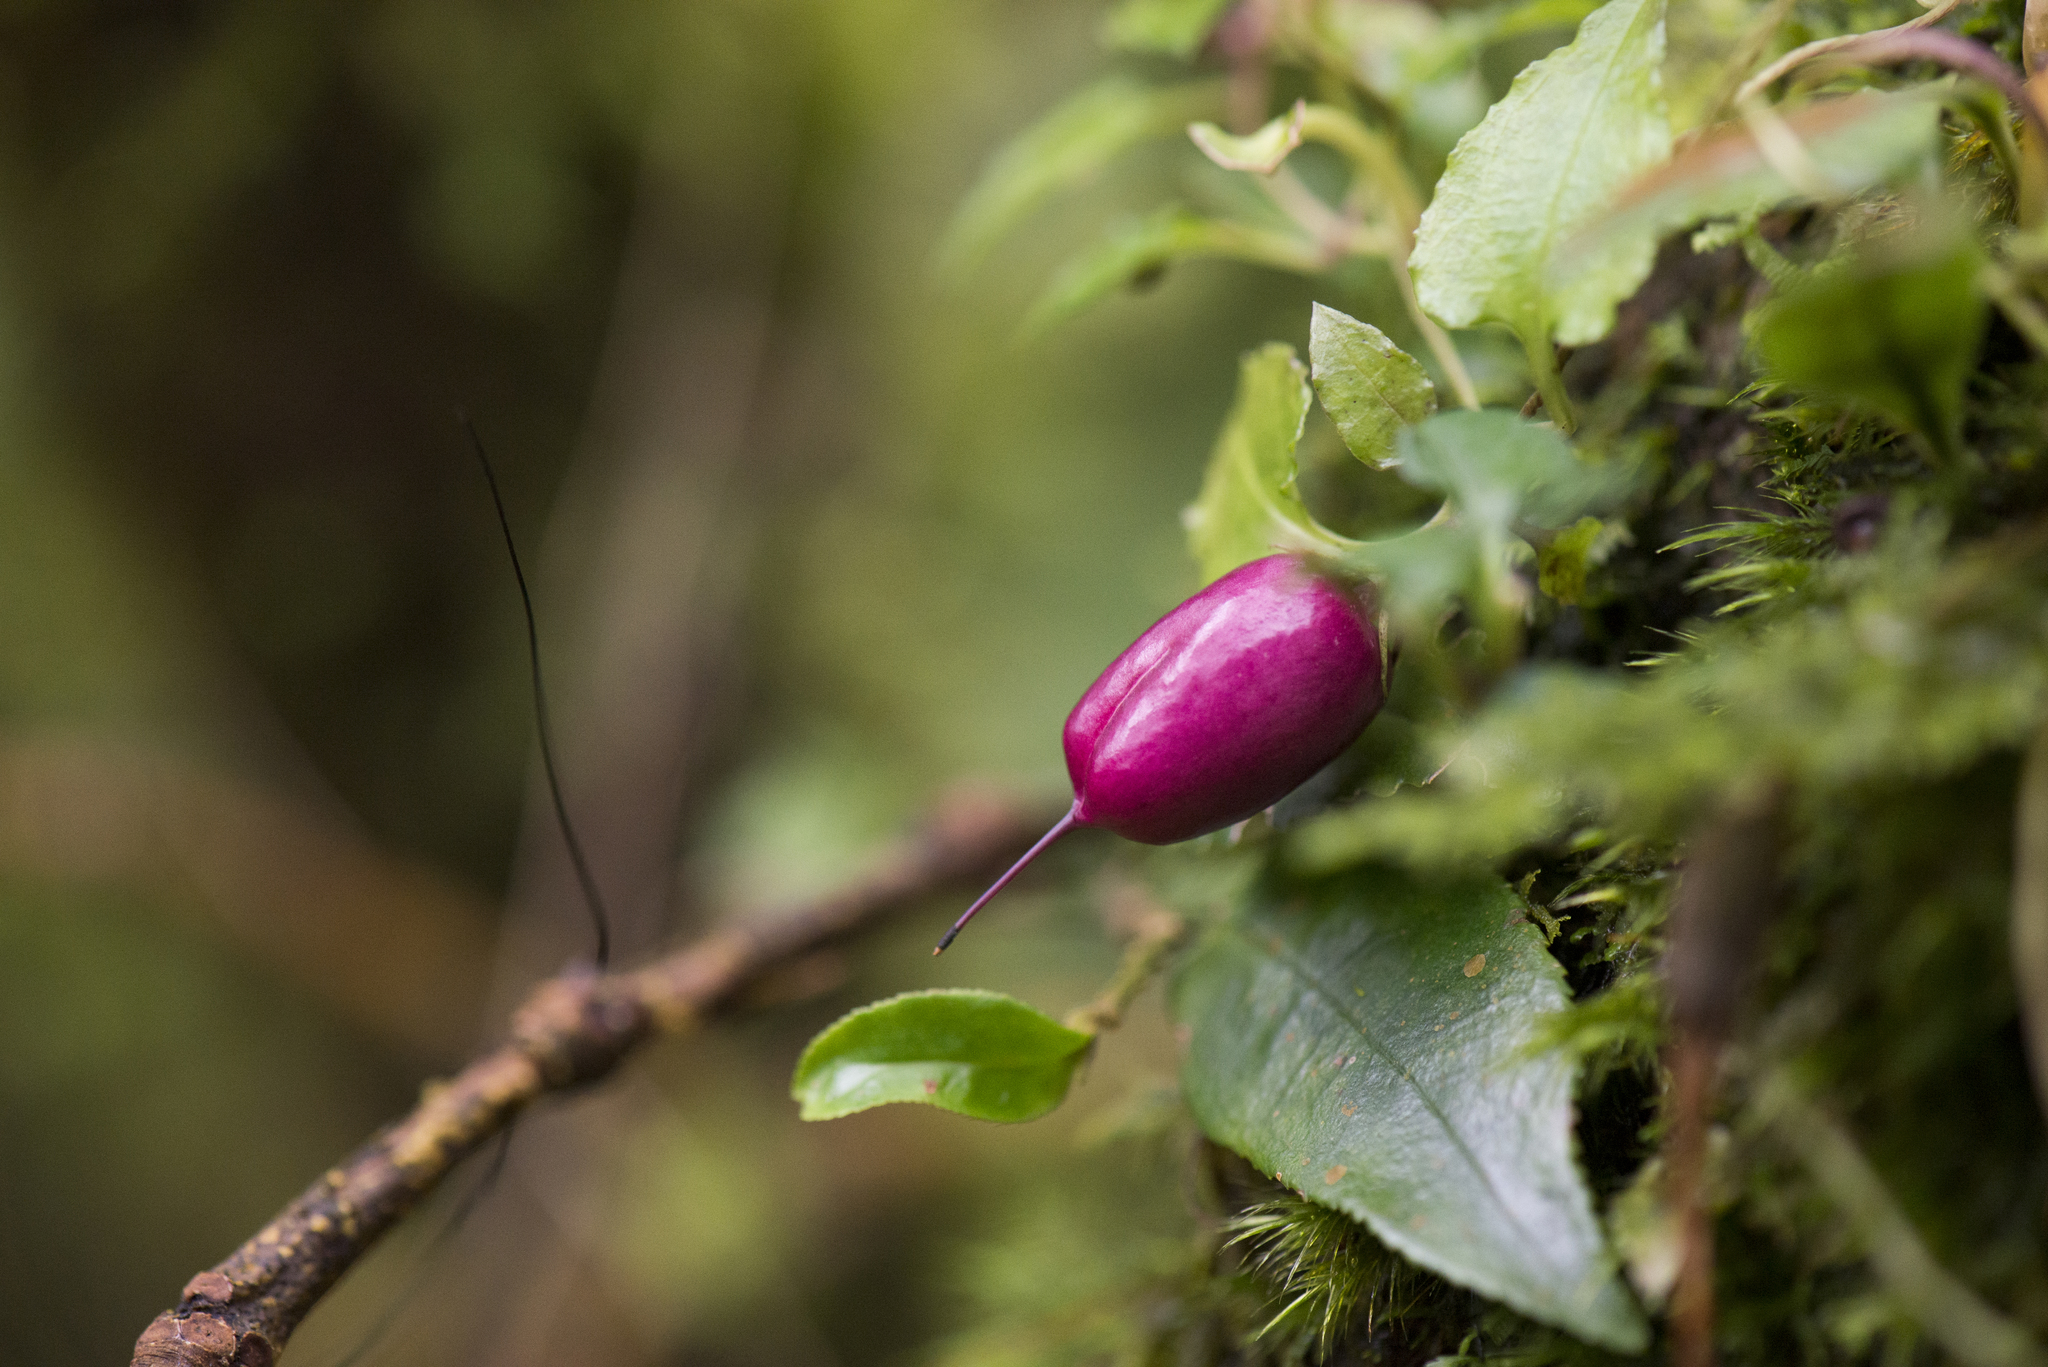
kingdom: Plantae
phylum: Tracheophyta
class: Magnoliopsida
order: Gentianales
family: Gentianaceae
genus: Tripterospermum
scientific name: Tripterospermum luzonense
